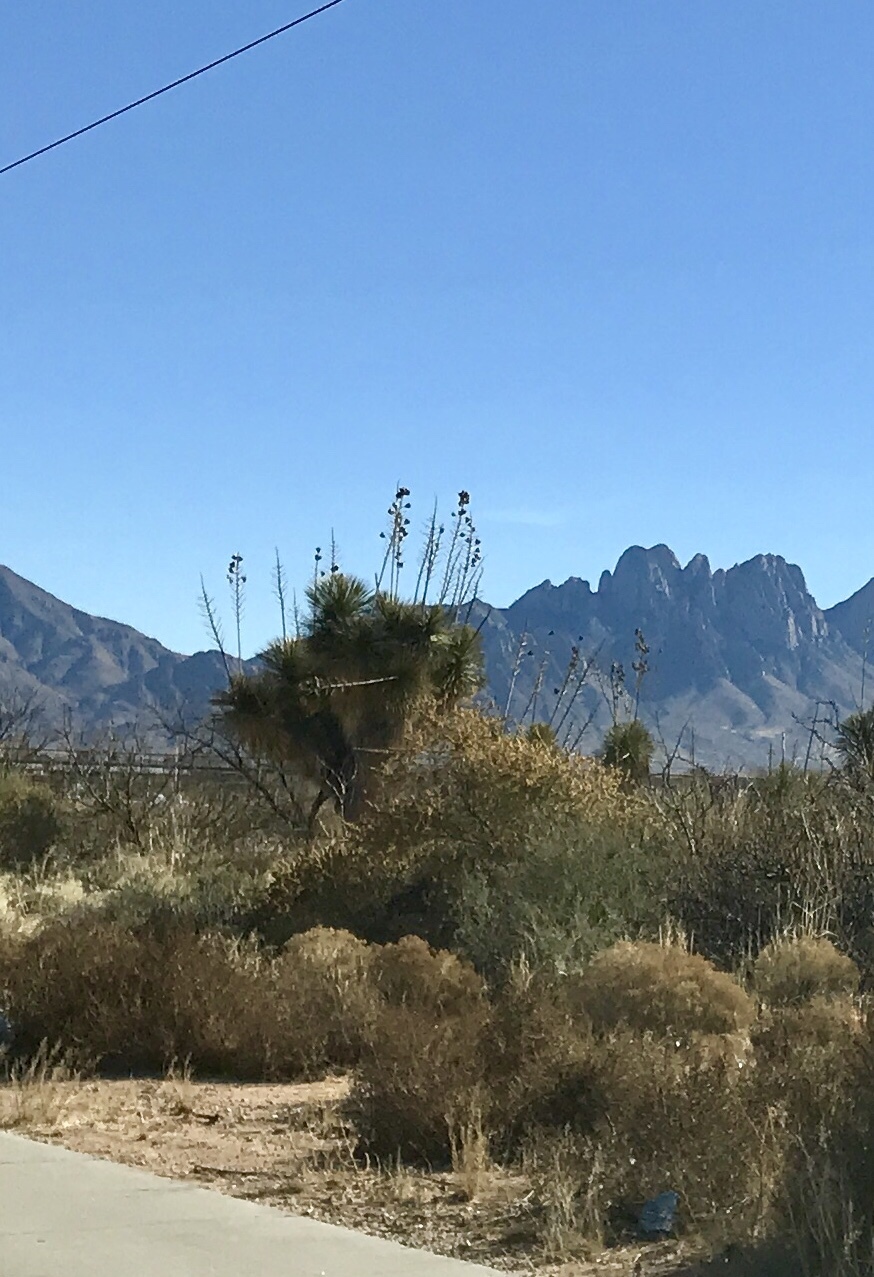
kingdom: Plantae
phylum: Tracheophyta
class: Liliopsida
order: Asparagales
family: Asparagaceae
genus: Yucca
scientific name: Yucca elata
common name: Palmella
